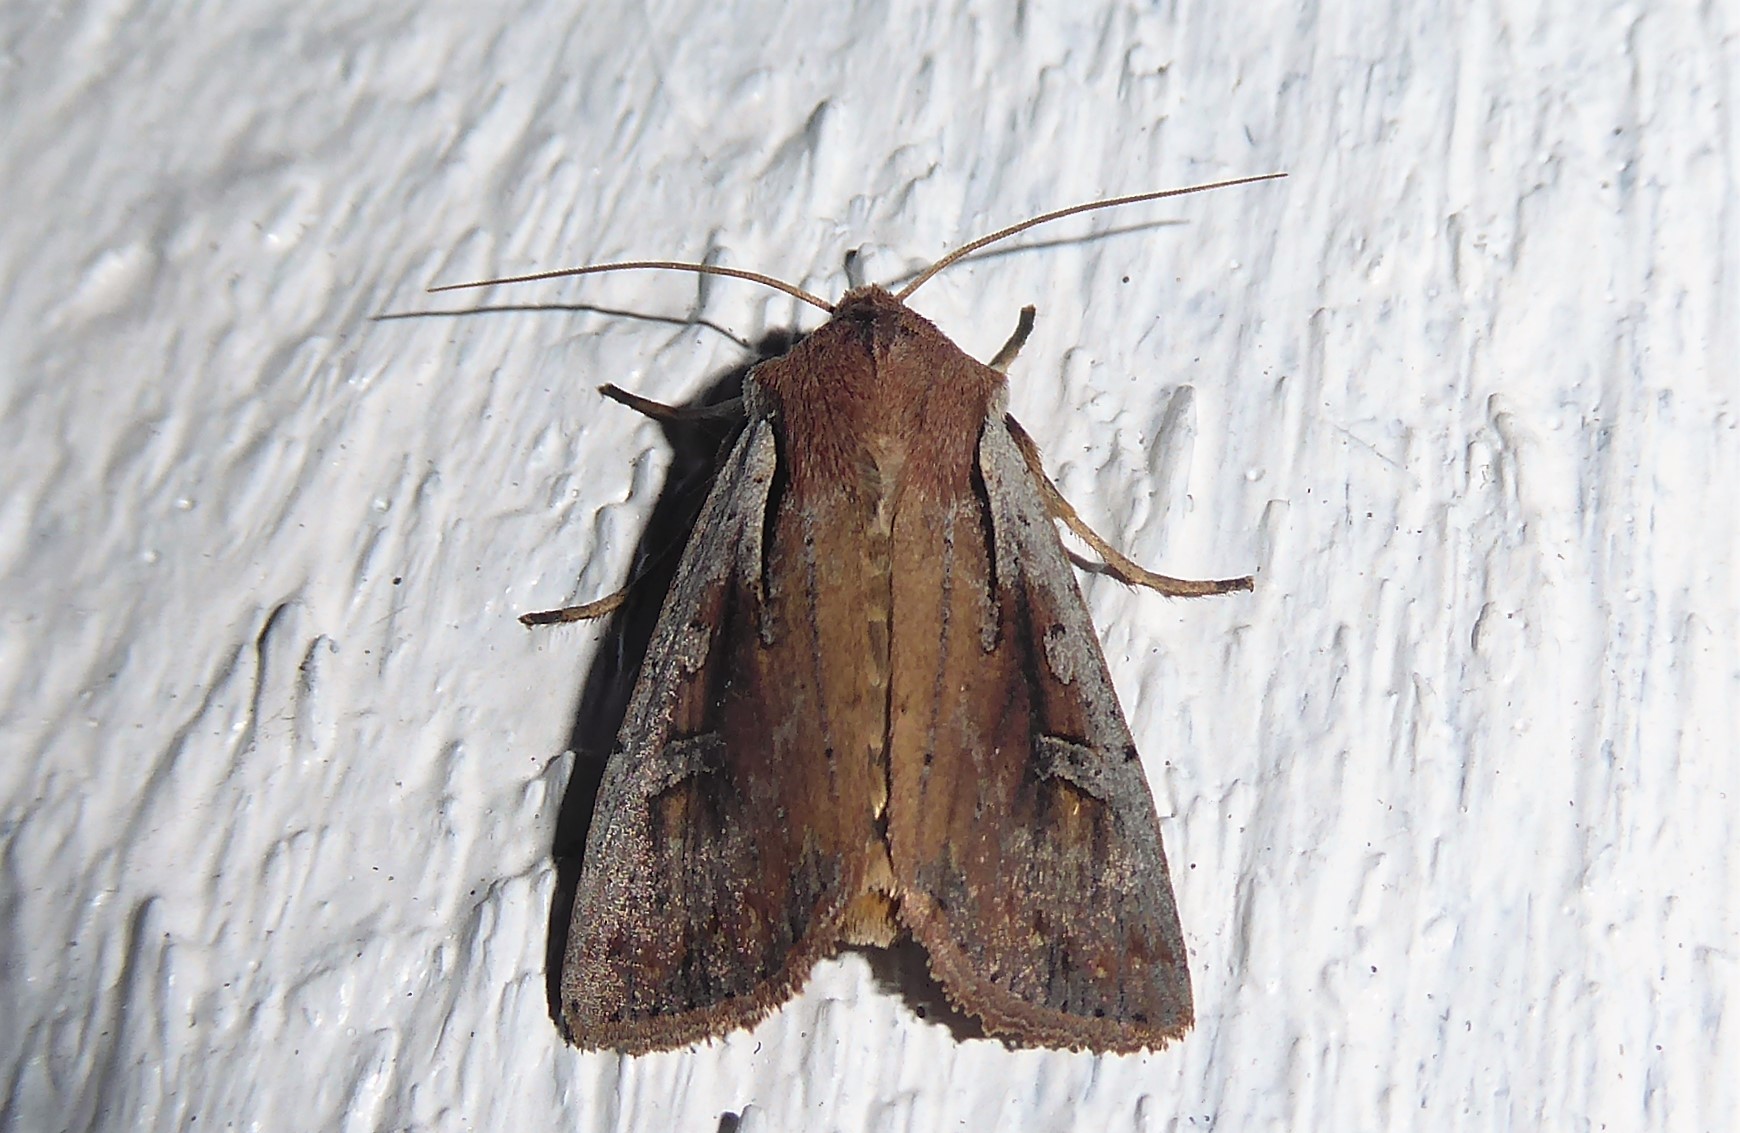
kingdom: Animalia
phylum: Arthropoda
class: Insecta
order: Lepidoptera
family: Noctuidae
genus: Ichneutica
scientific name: Ichneutica atristriga
